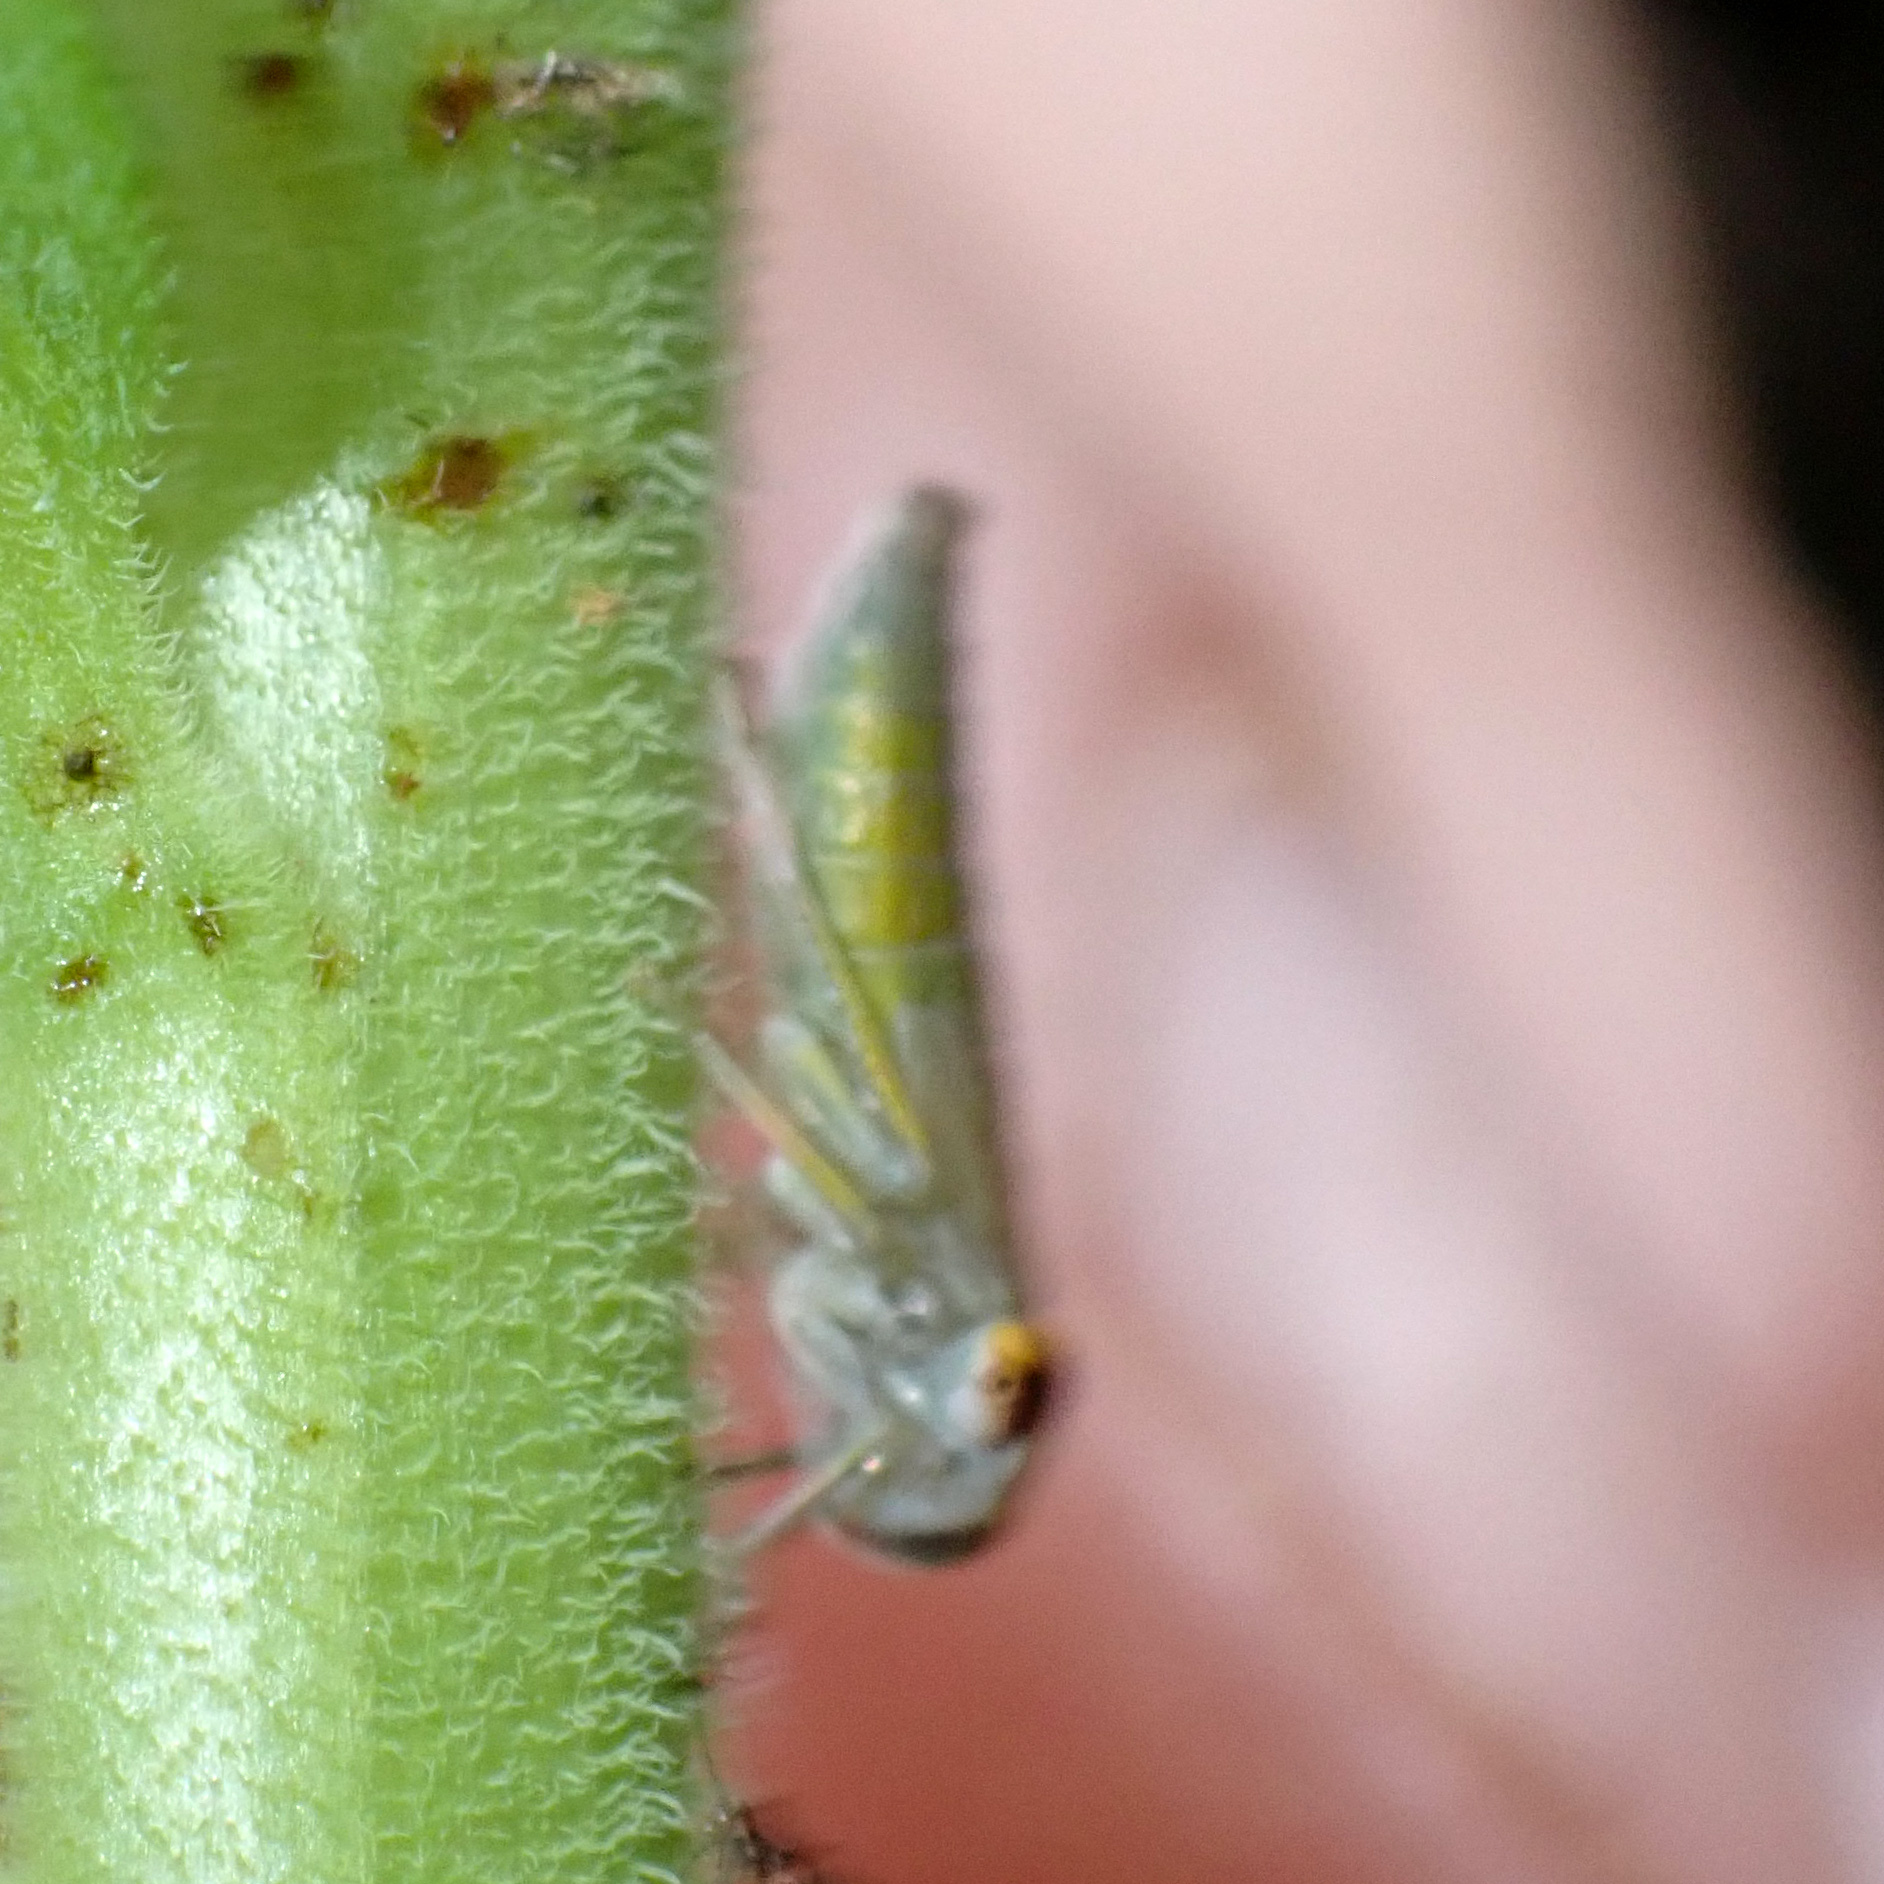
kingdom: Animalia
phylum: Arthropoda
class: Insecta
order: Hemiptera
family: Cicadellidae
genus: Oncometopia
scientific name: Oncometopia orbona
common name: Broad-headed sharpshooter
